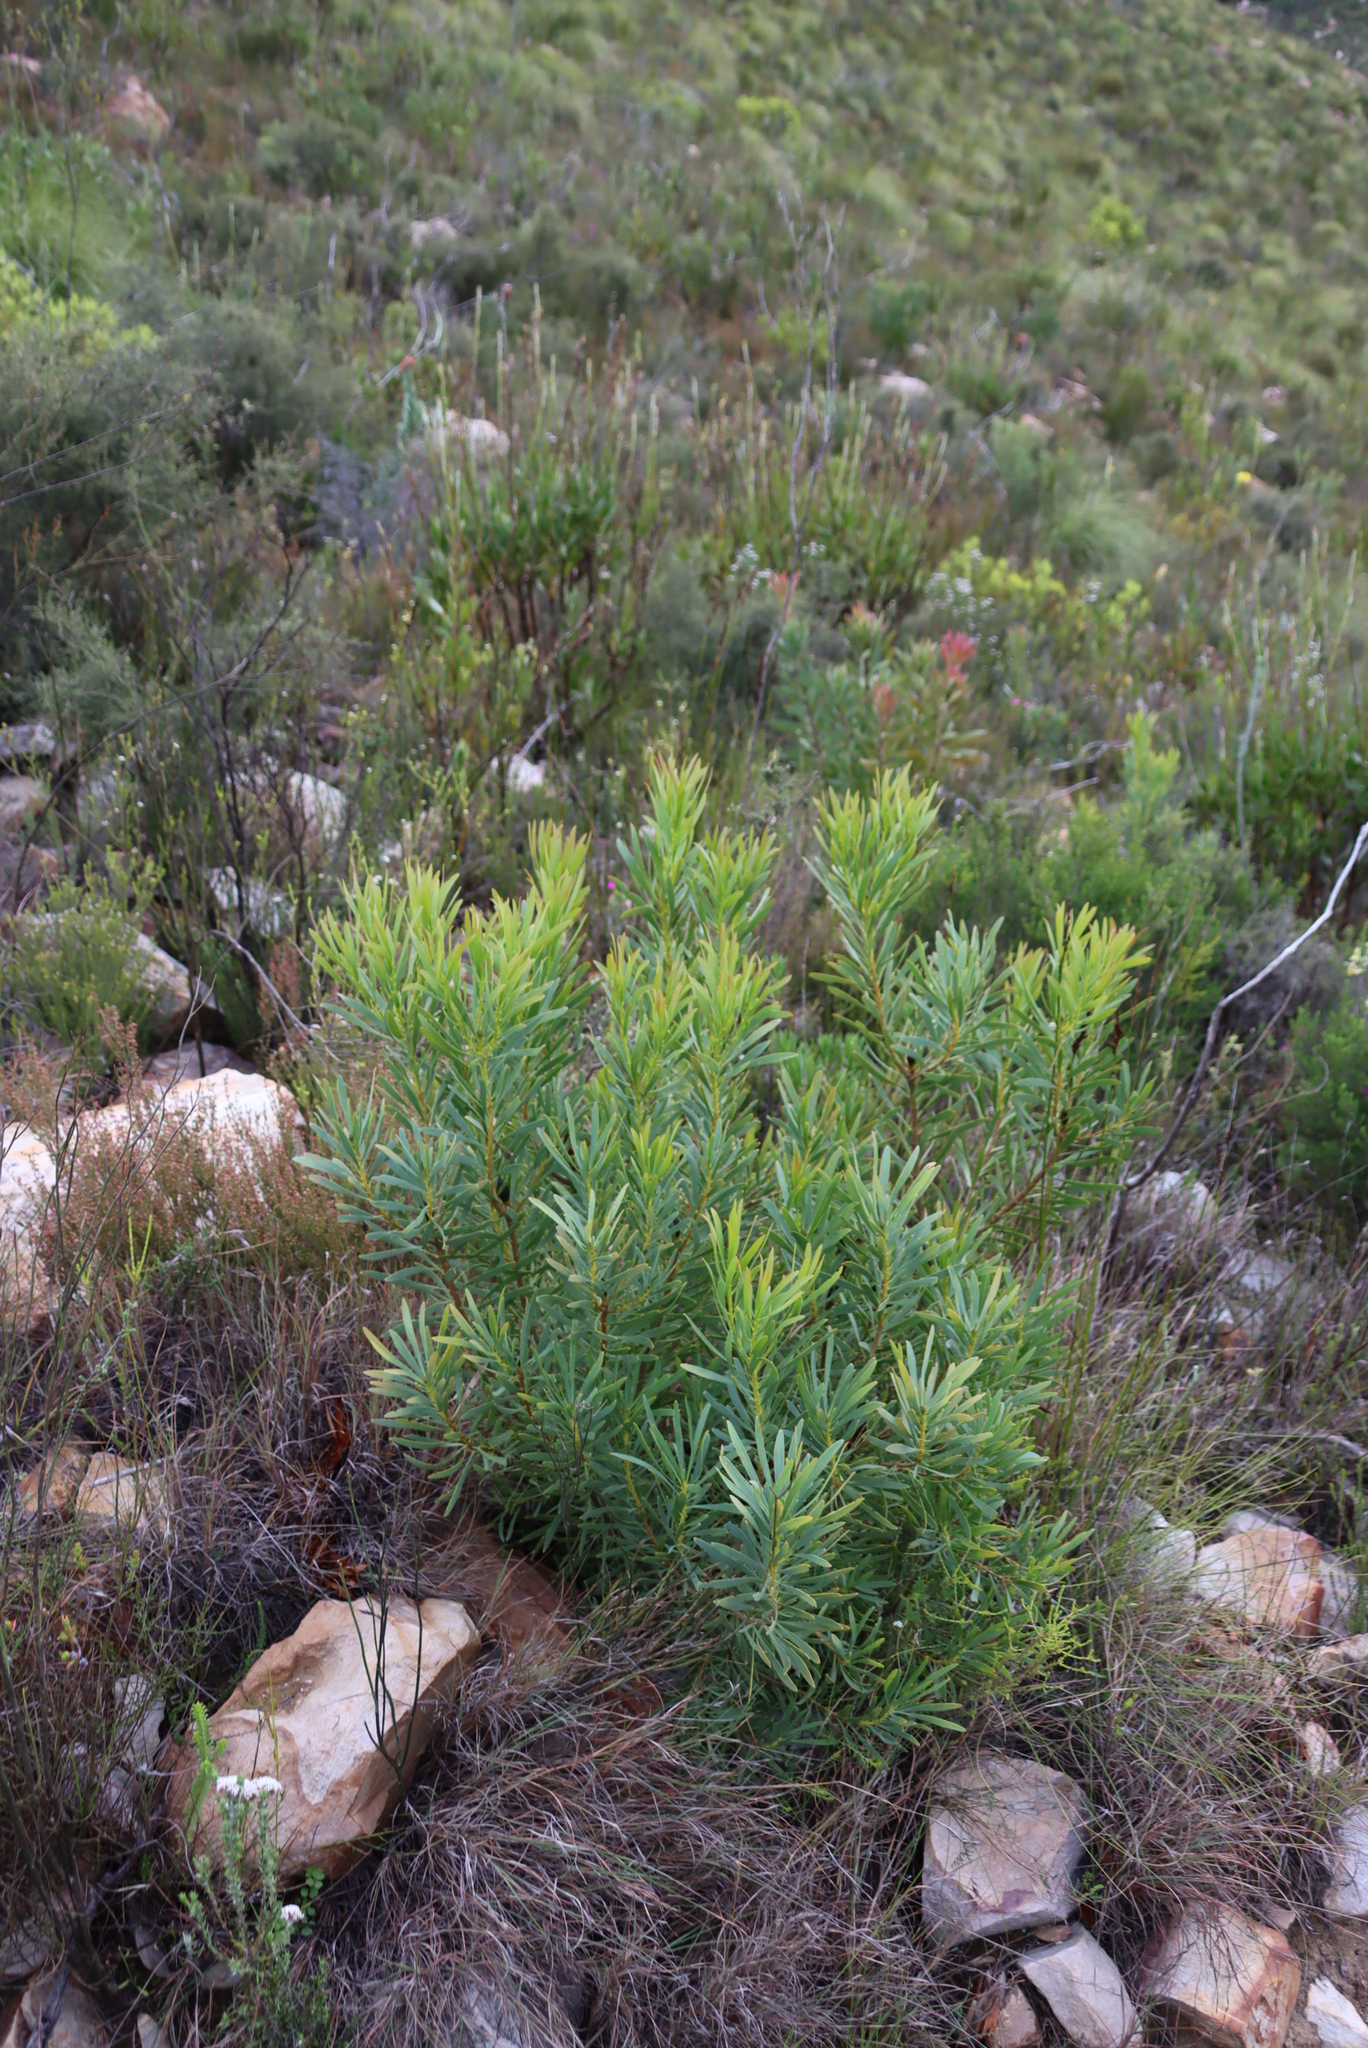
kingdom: Plantae
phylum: Tracheophyta
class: Magnoliopsida
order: Proteales
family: Proteaceae
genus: Protea
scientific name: Protea repens
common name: Sugarbush
